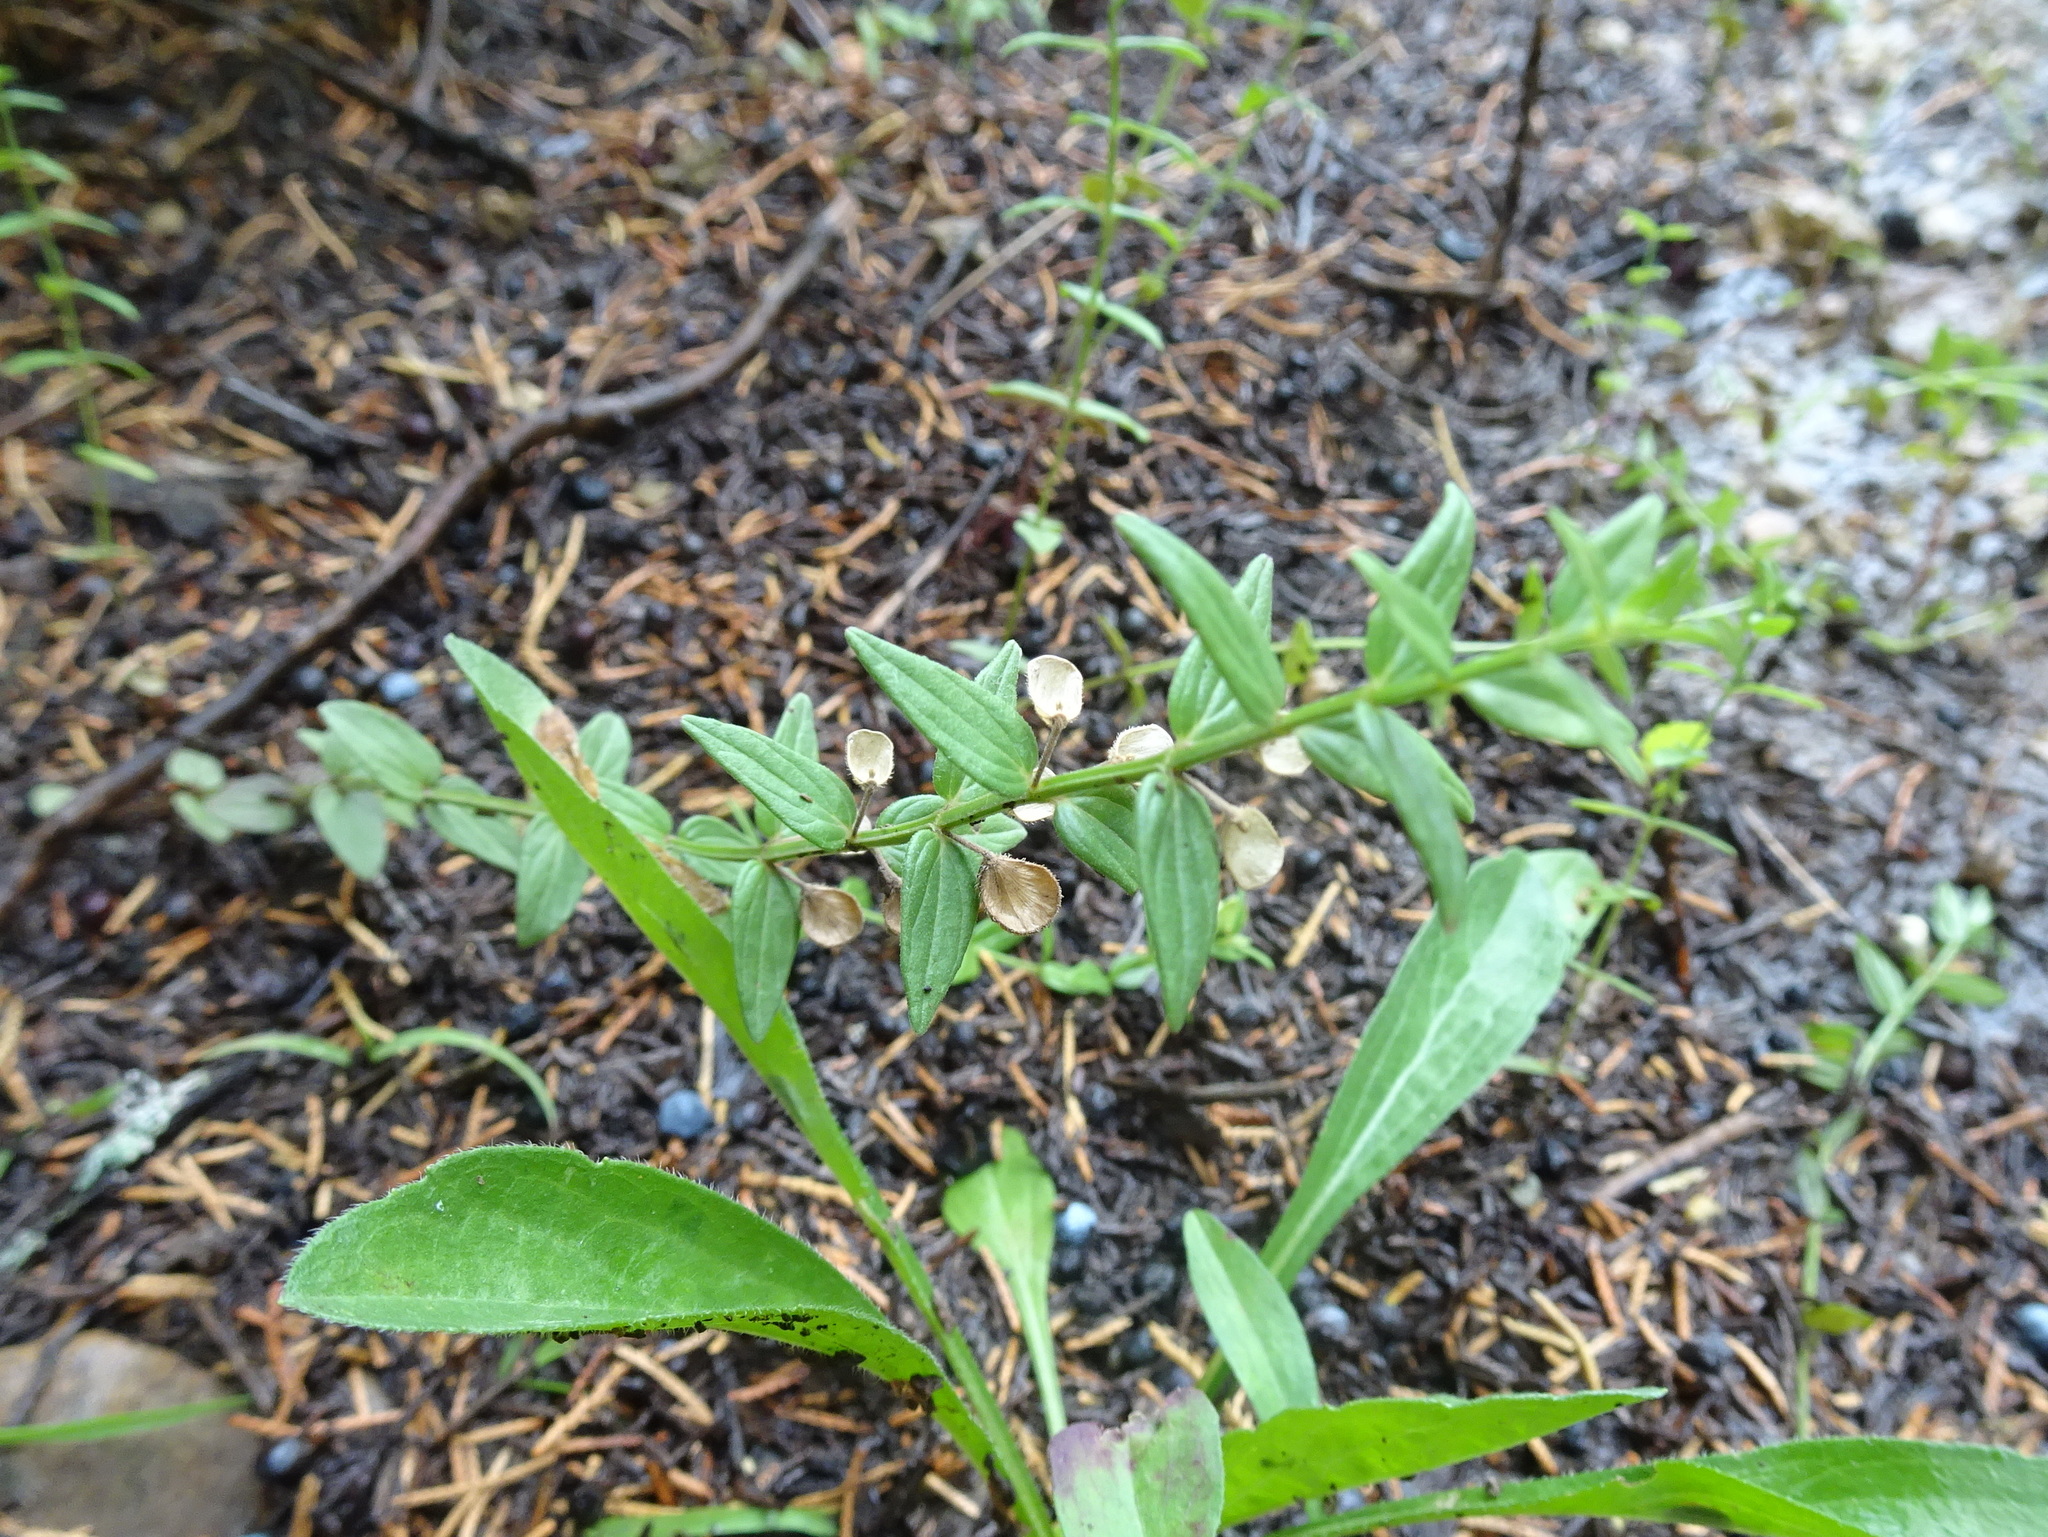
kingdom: Plantae
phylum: Tracheophyta
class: Magnoliopsida
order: Lamiales
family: Lamiaceae
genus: Scutellaria
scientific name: Scutellaria parvula
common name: Little scullcap
